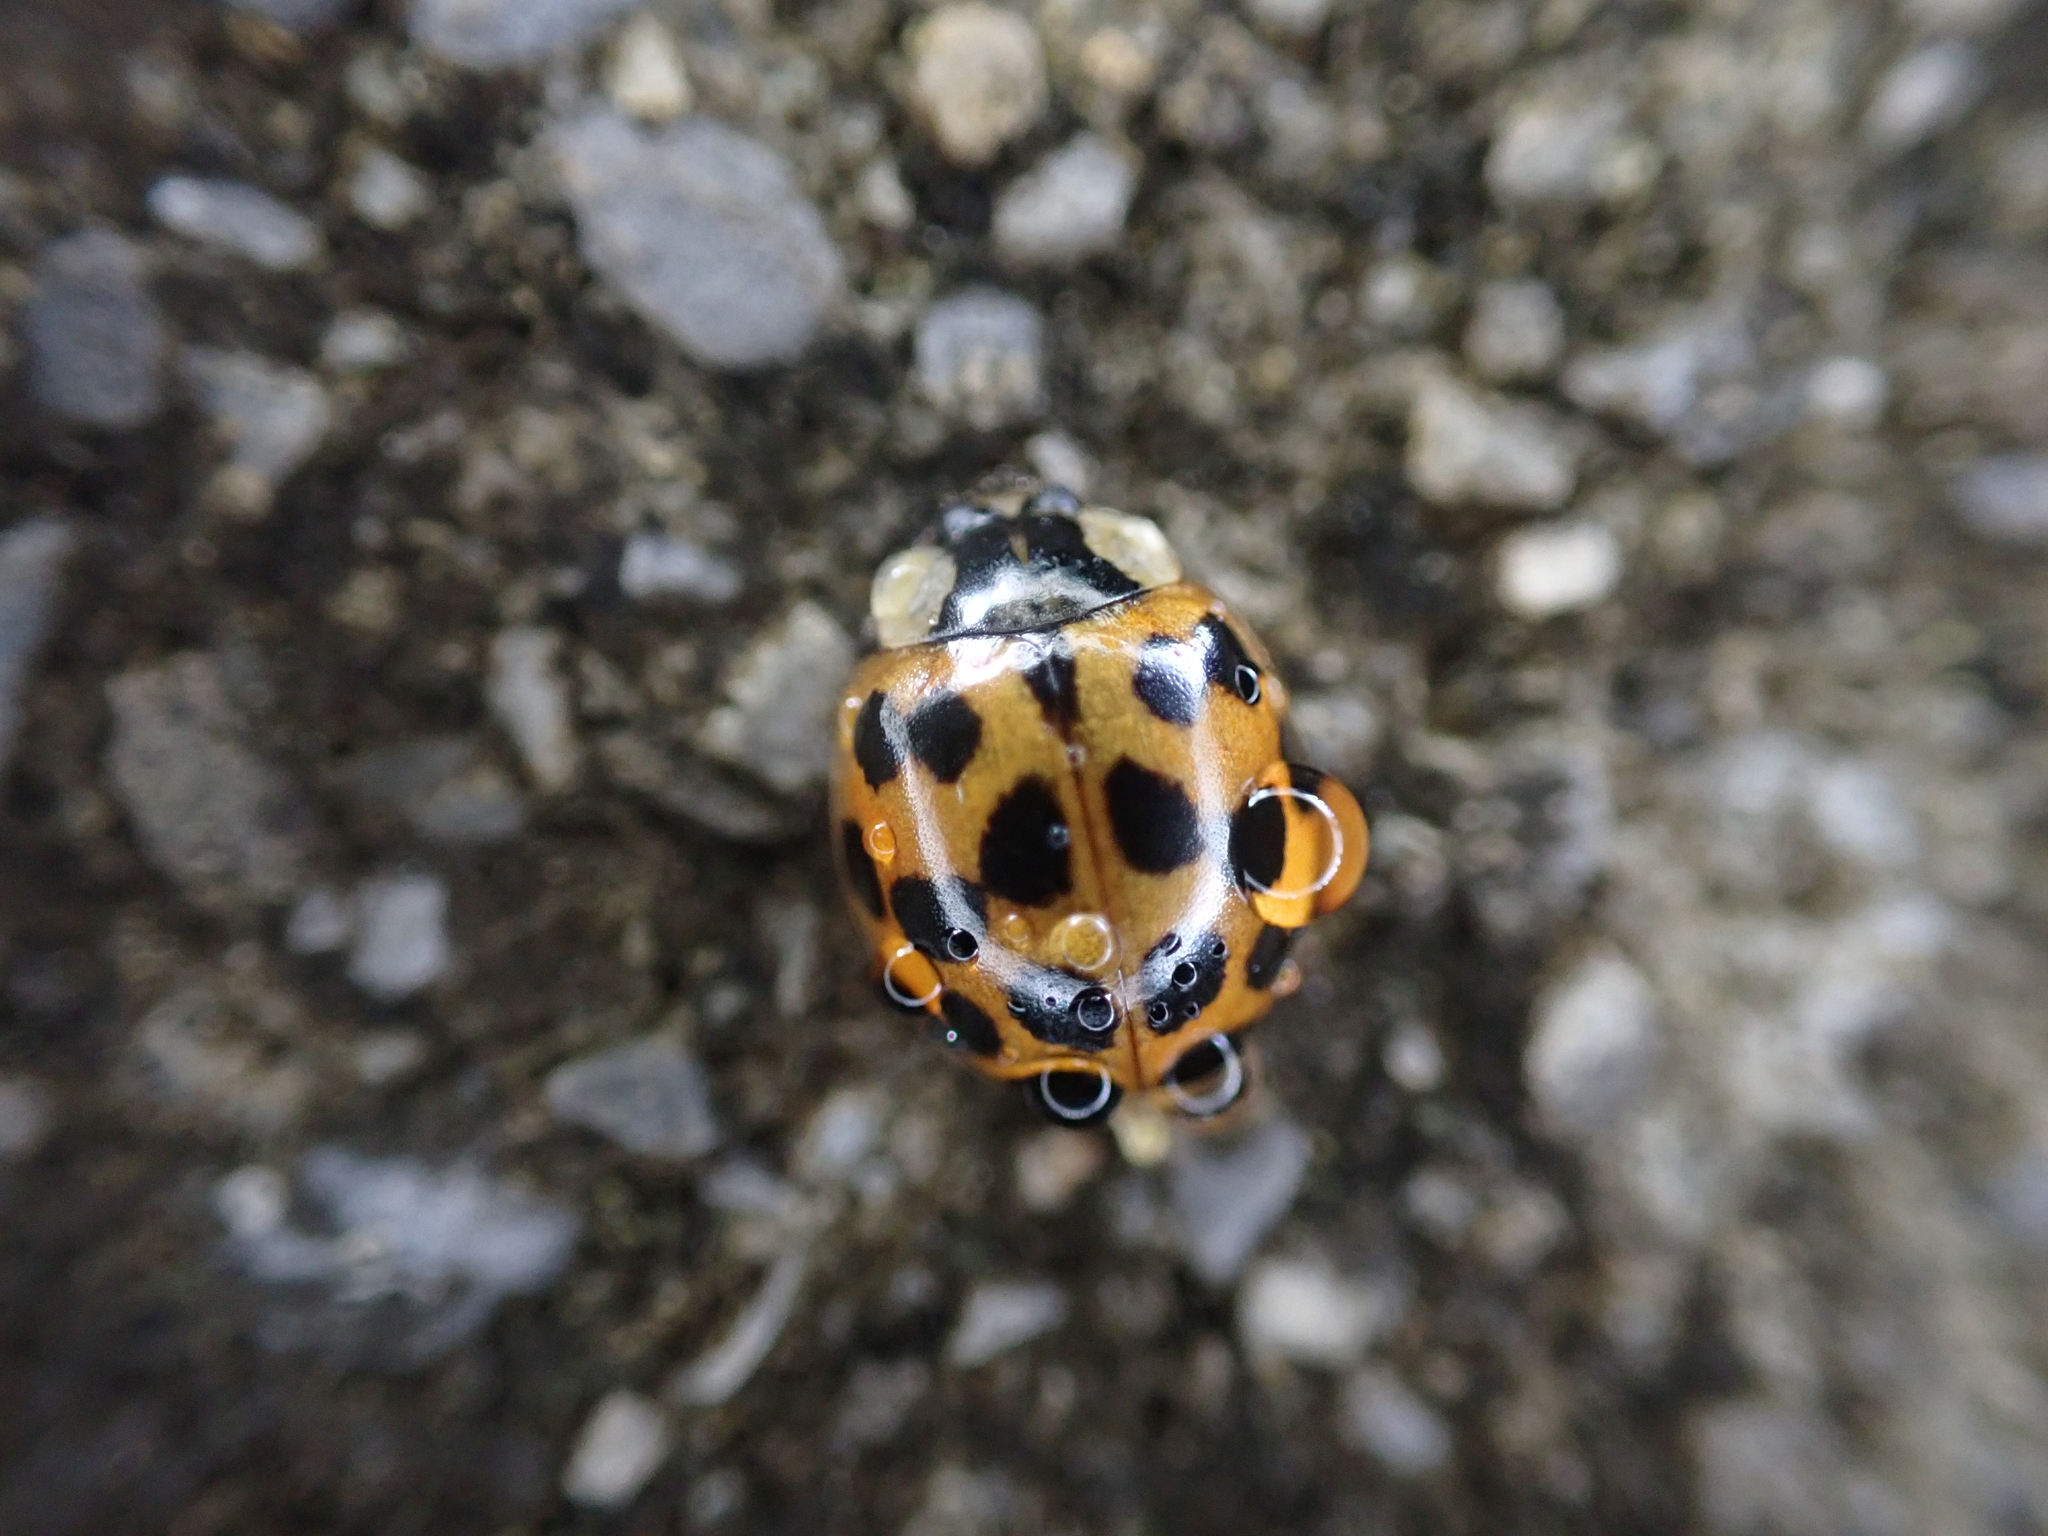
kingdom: Animalia
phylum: Arthropoda
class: Insecta
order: Coleoptera
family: Coccinellidae
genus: Harmonia
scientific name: Harmonia axyridis
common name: Harlequin ladybird
